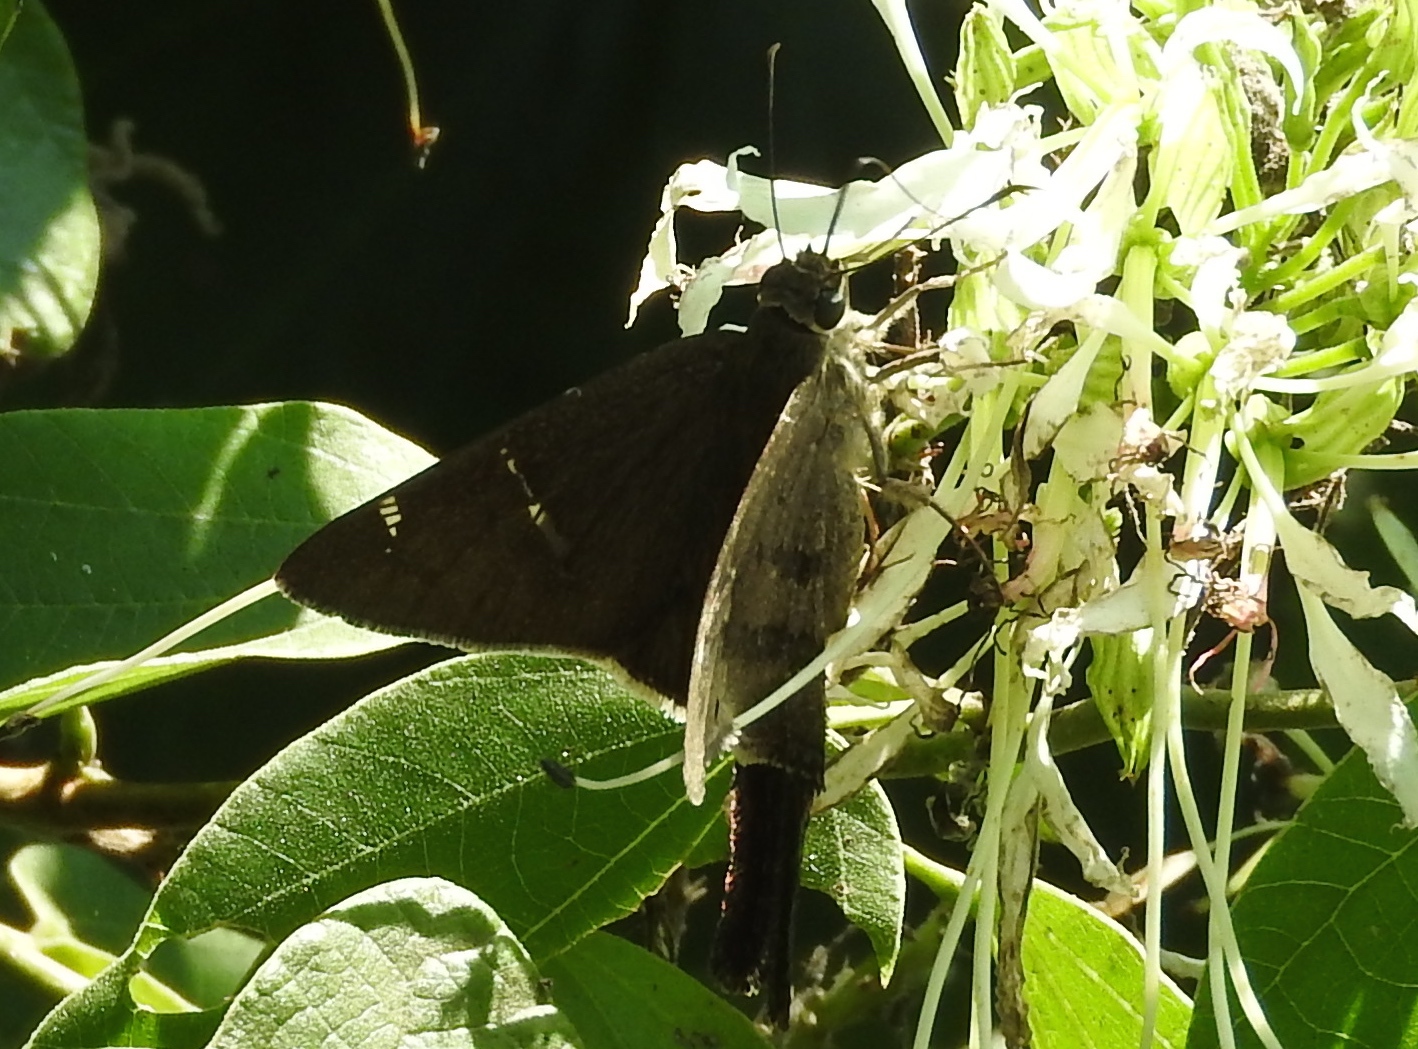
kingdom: Animalia
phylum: Arthropoda
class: Insecta
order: Lepidoptera
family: Hesperiidae
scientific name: Hesperiidae
